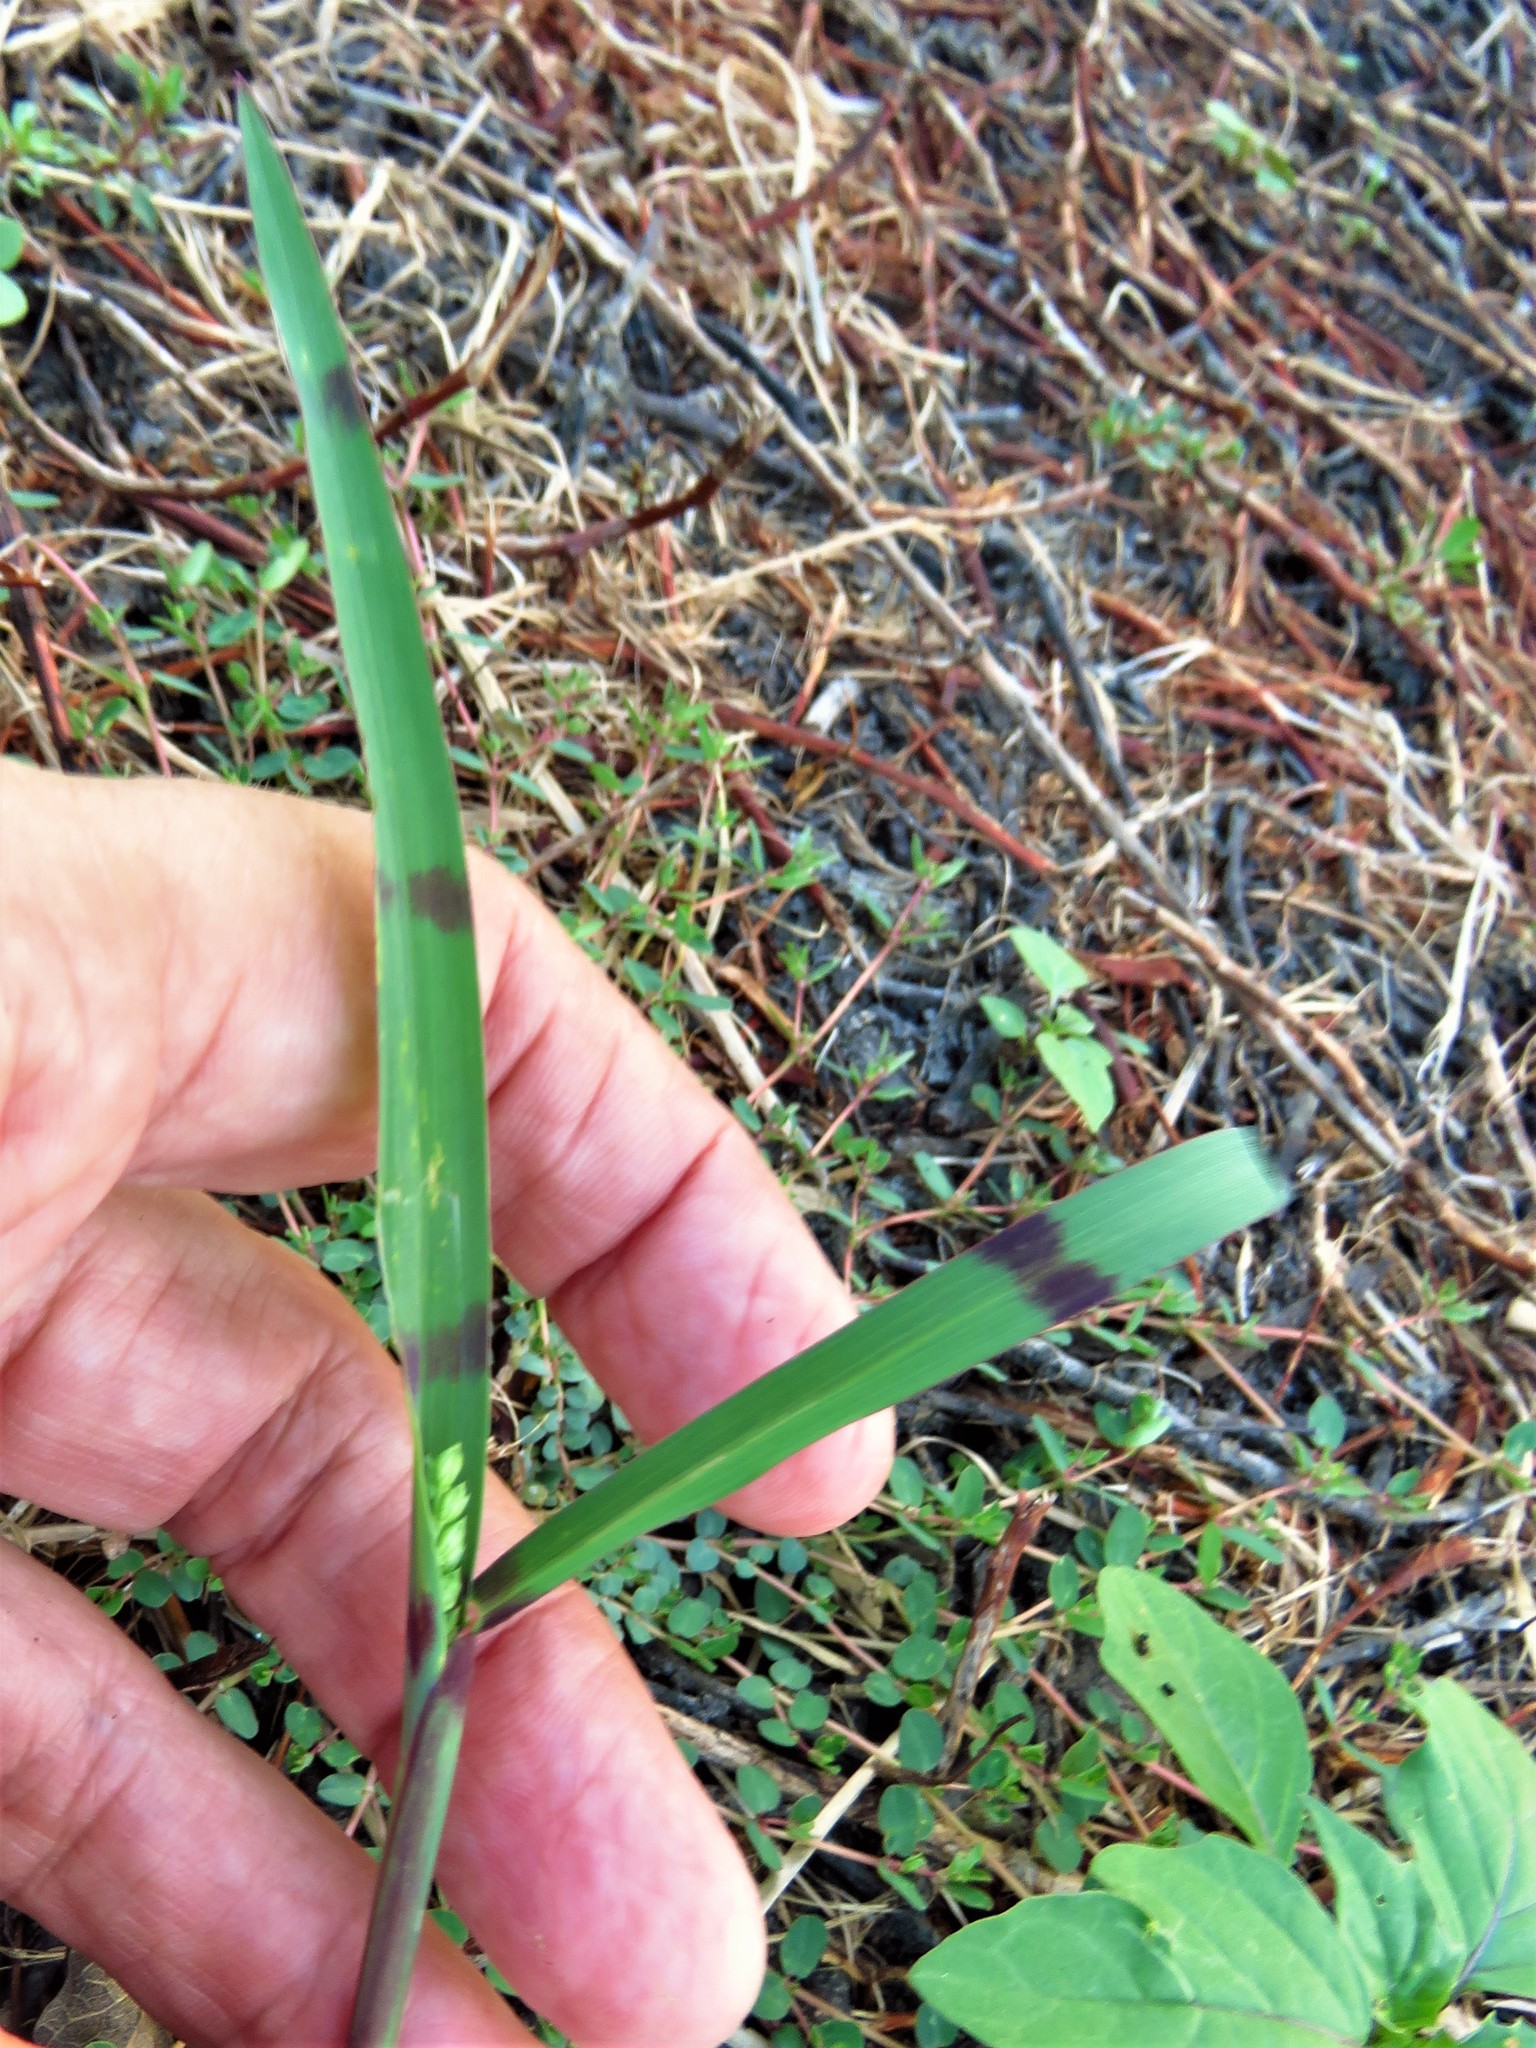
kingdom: Plantae
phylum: Tracheophyta
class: Liliopsida
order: Poales
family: Poaceae
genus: Echinochloa
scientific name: Echinochloa colonum
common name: Jungle rice
